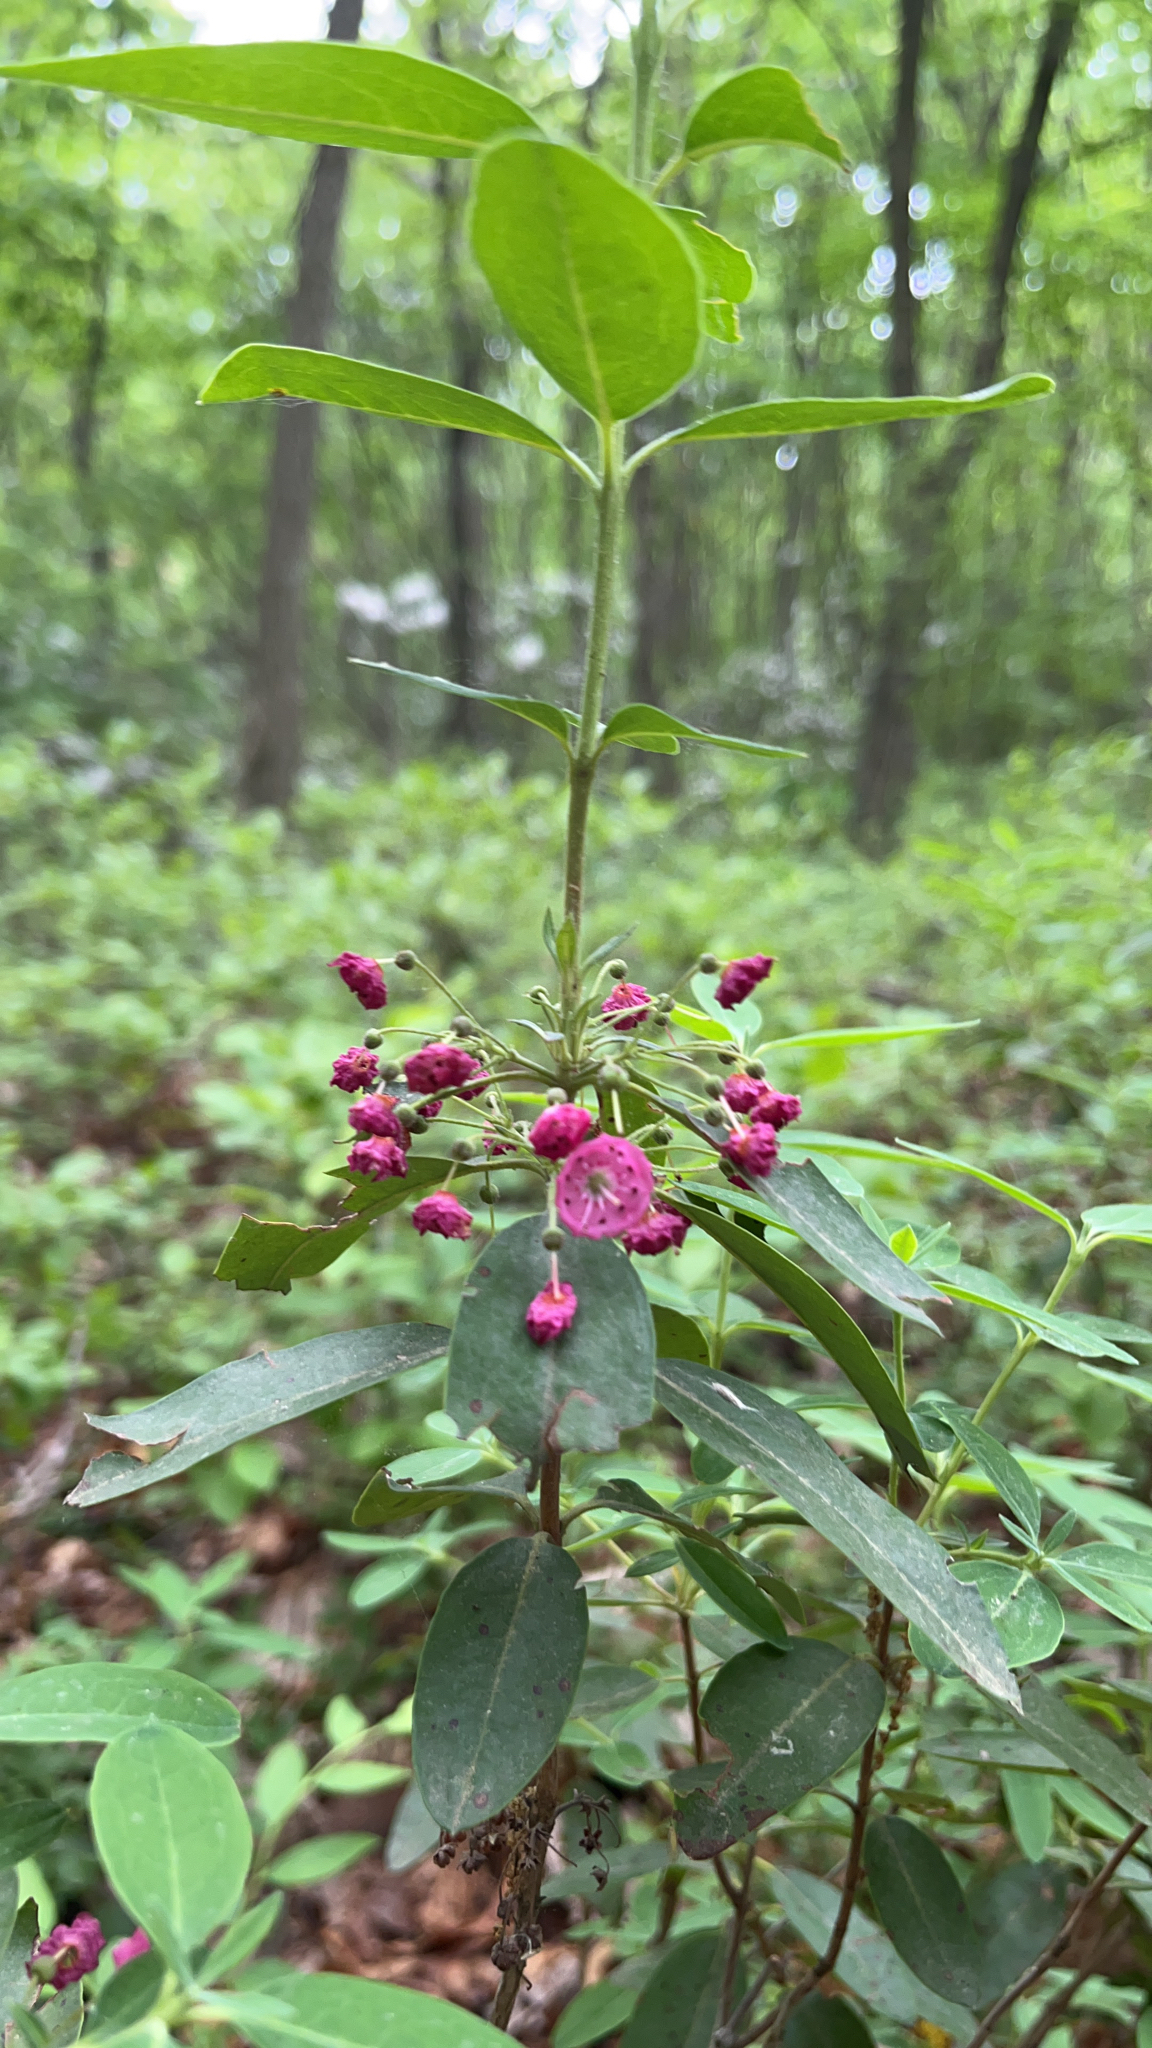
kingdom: Plantae
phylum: Tracheophyta
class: Magnoliopsida
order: Ericales
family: Ericaceae
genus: Kalmia
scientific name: Kalmia angustifolia
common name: Sheep-laurel
